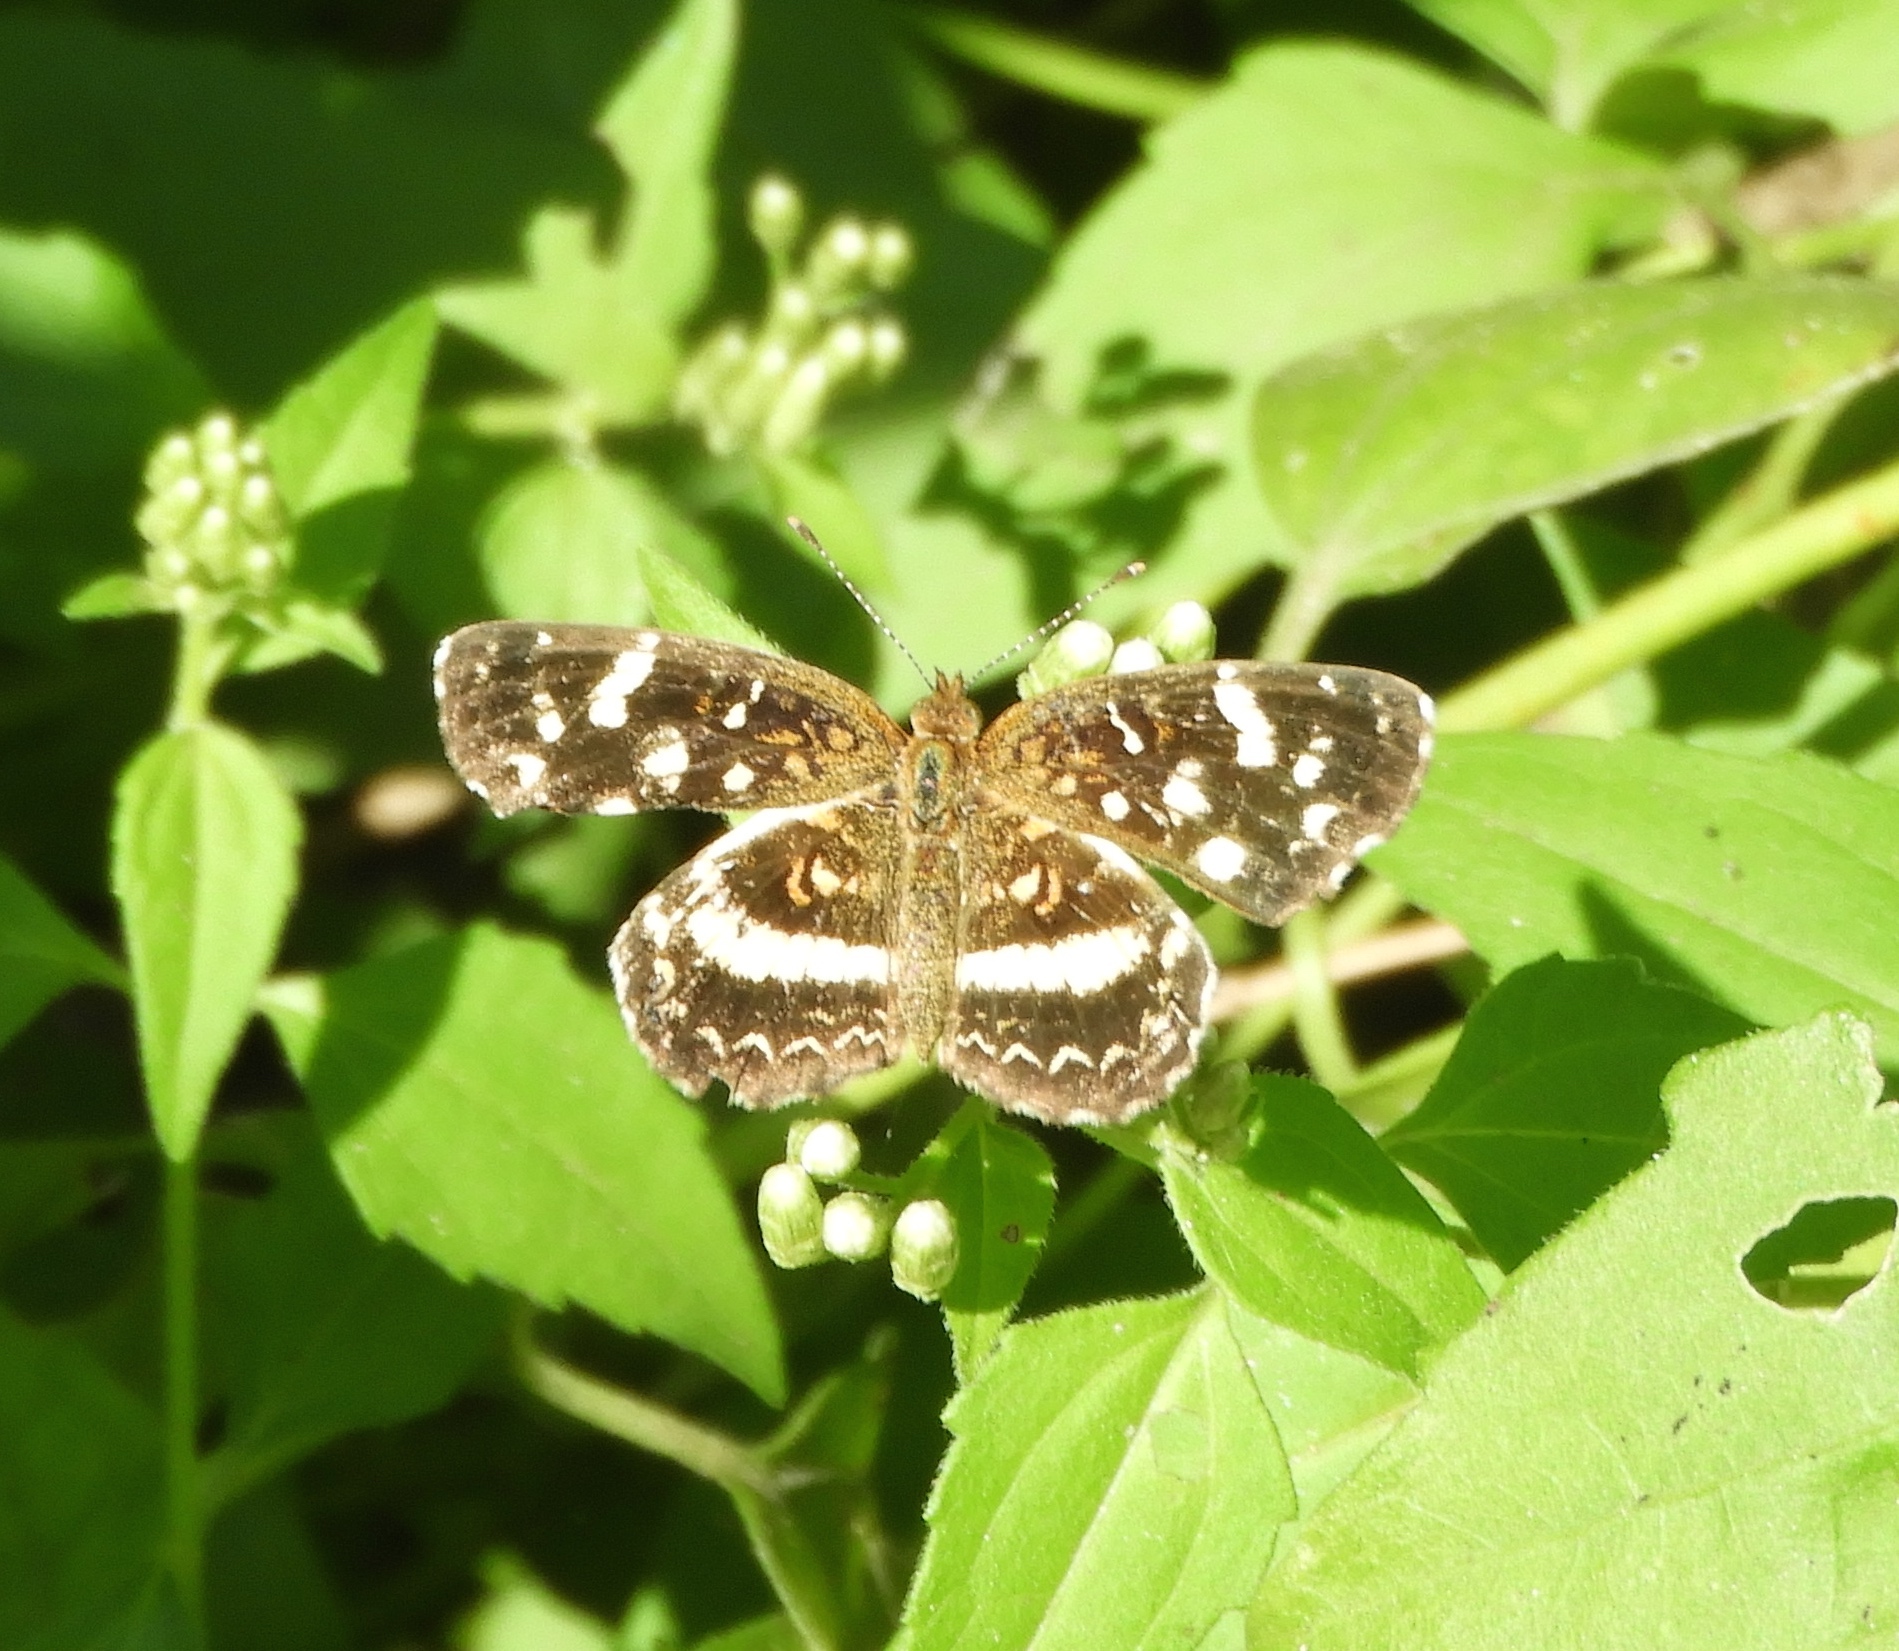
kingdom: Animalia
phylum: Arthropoda
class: Insecta
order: Lepidoptera
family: Nymphalidae
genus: Anthanassa
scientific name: Anthanassa tulcis
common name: Pale-banded crescent
